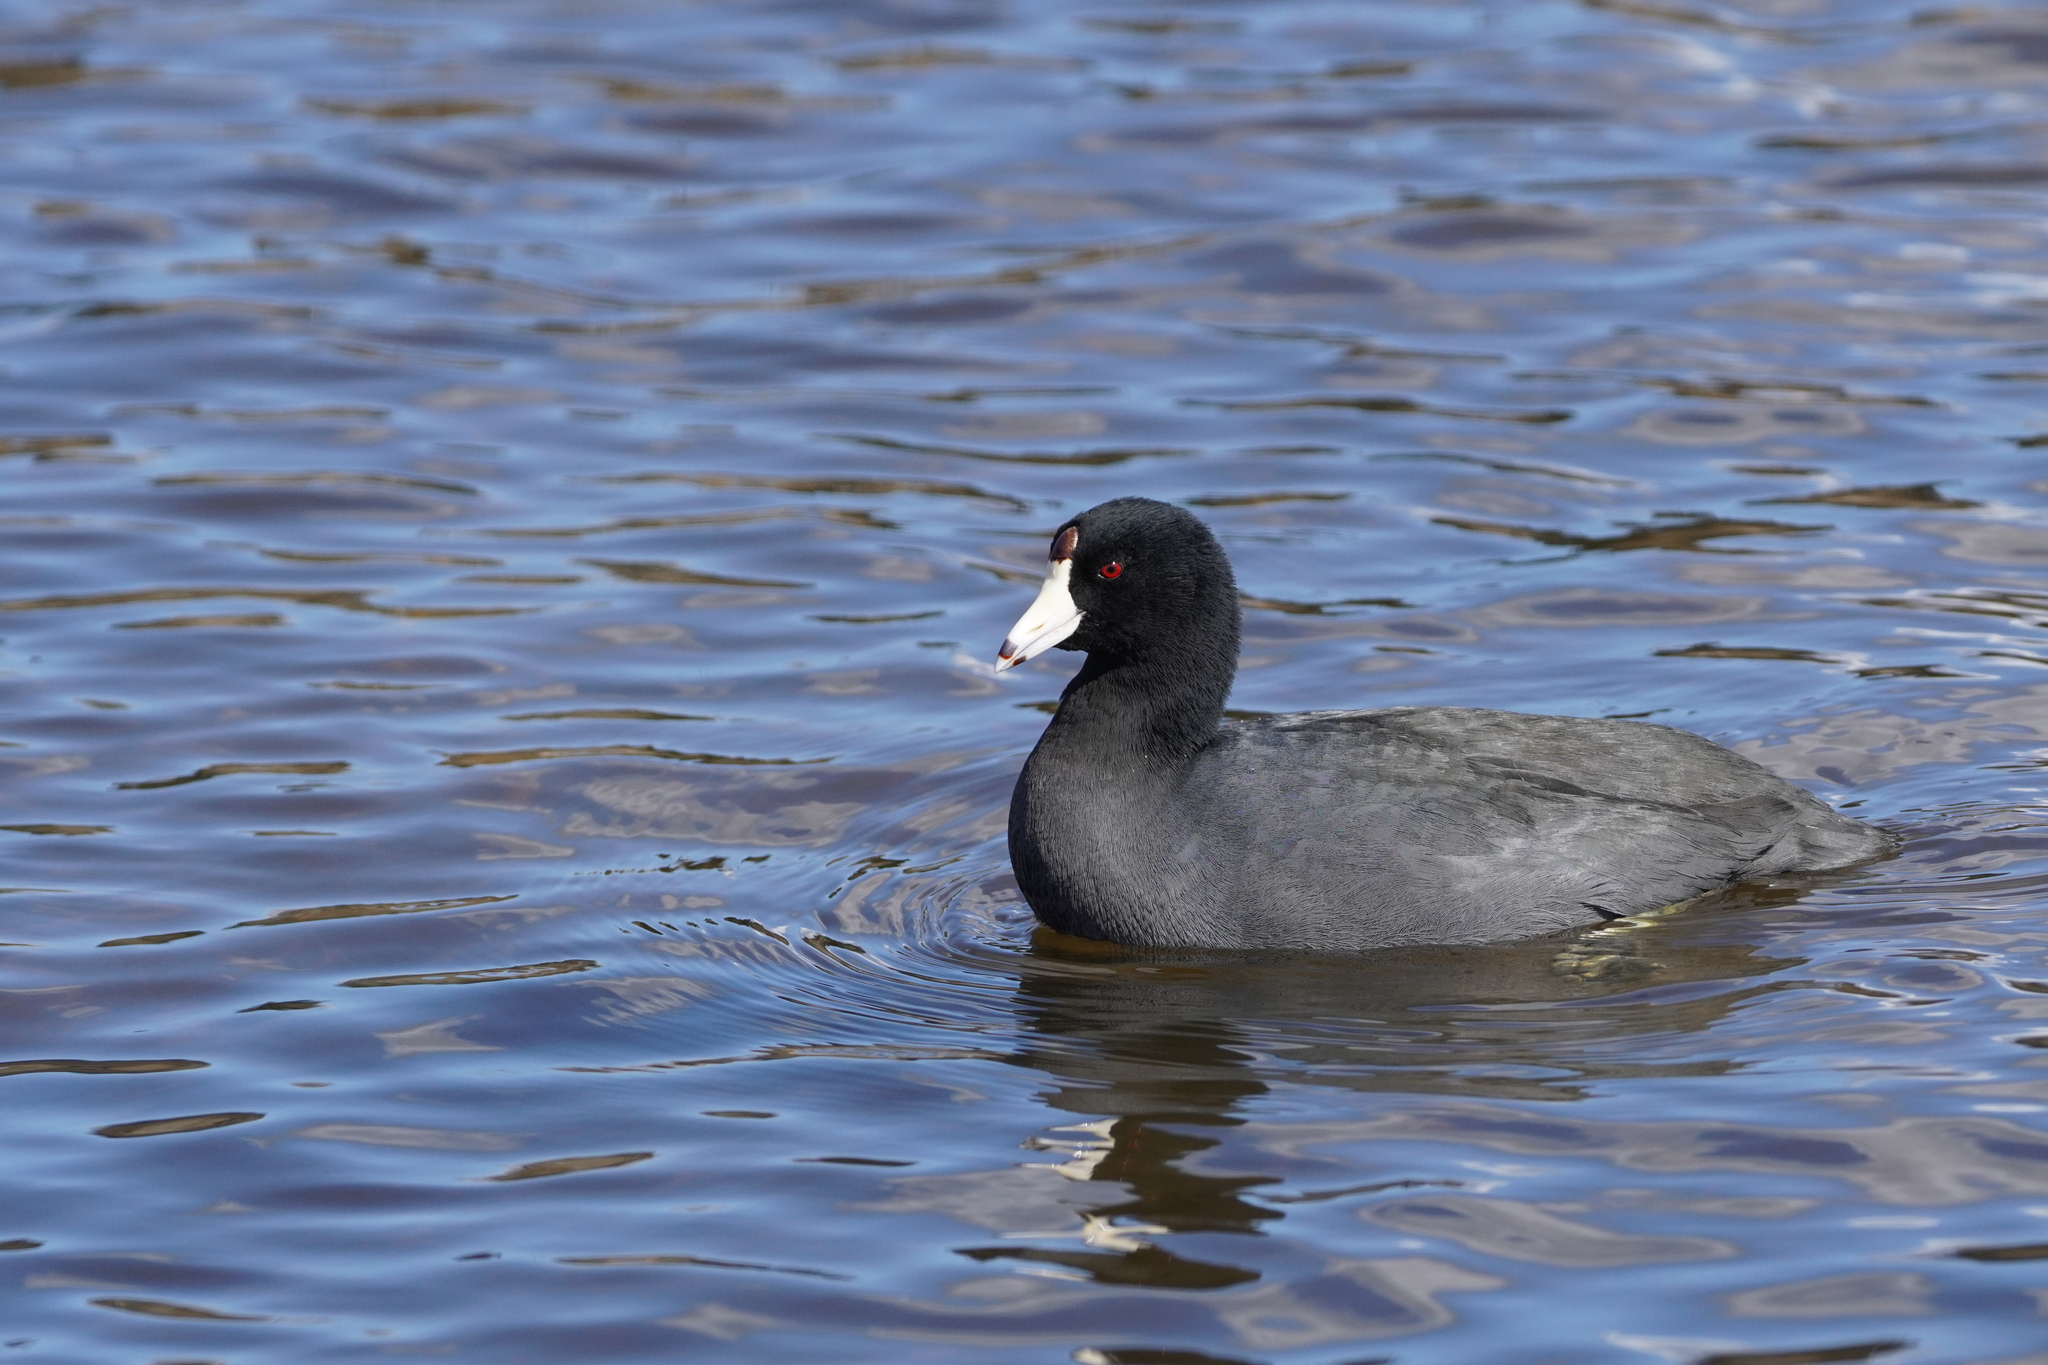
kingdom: Animalia
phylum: Chordata
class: Aves
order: Gruiformes
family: Rallidae
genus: Fulica
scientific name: Fulica americana
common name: American coot
